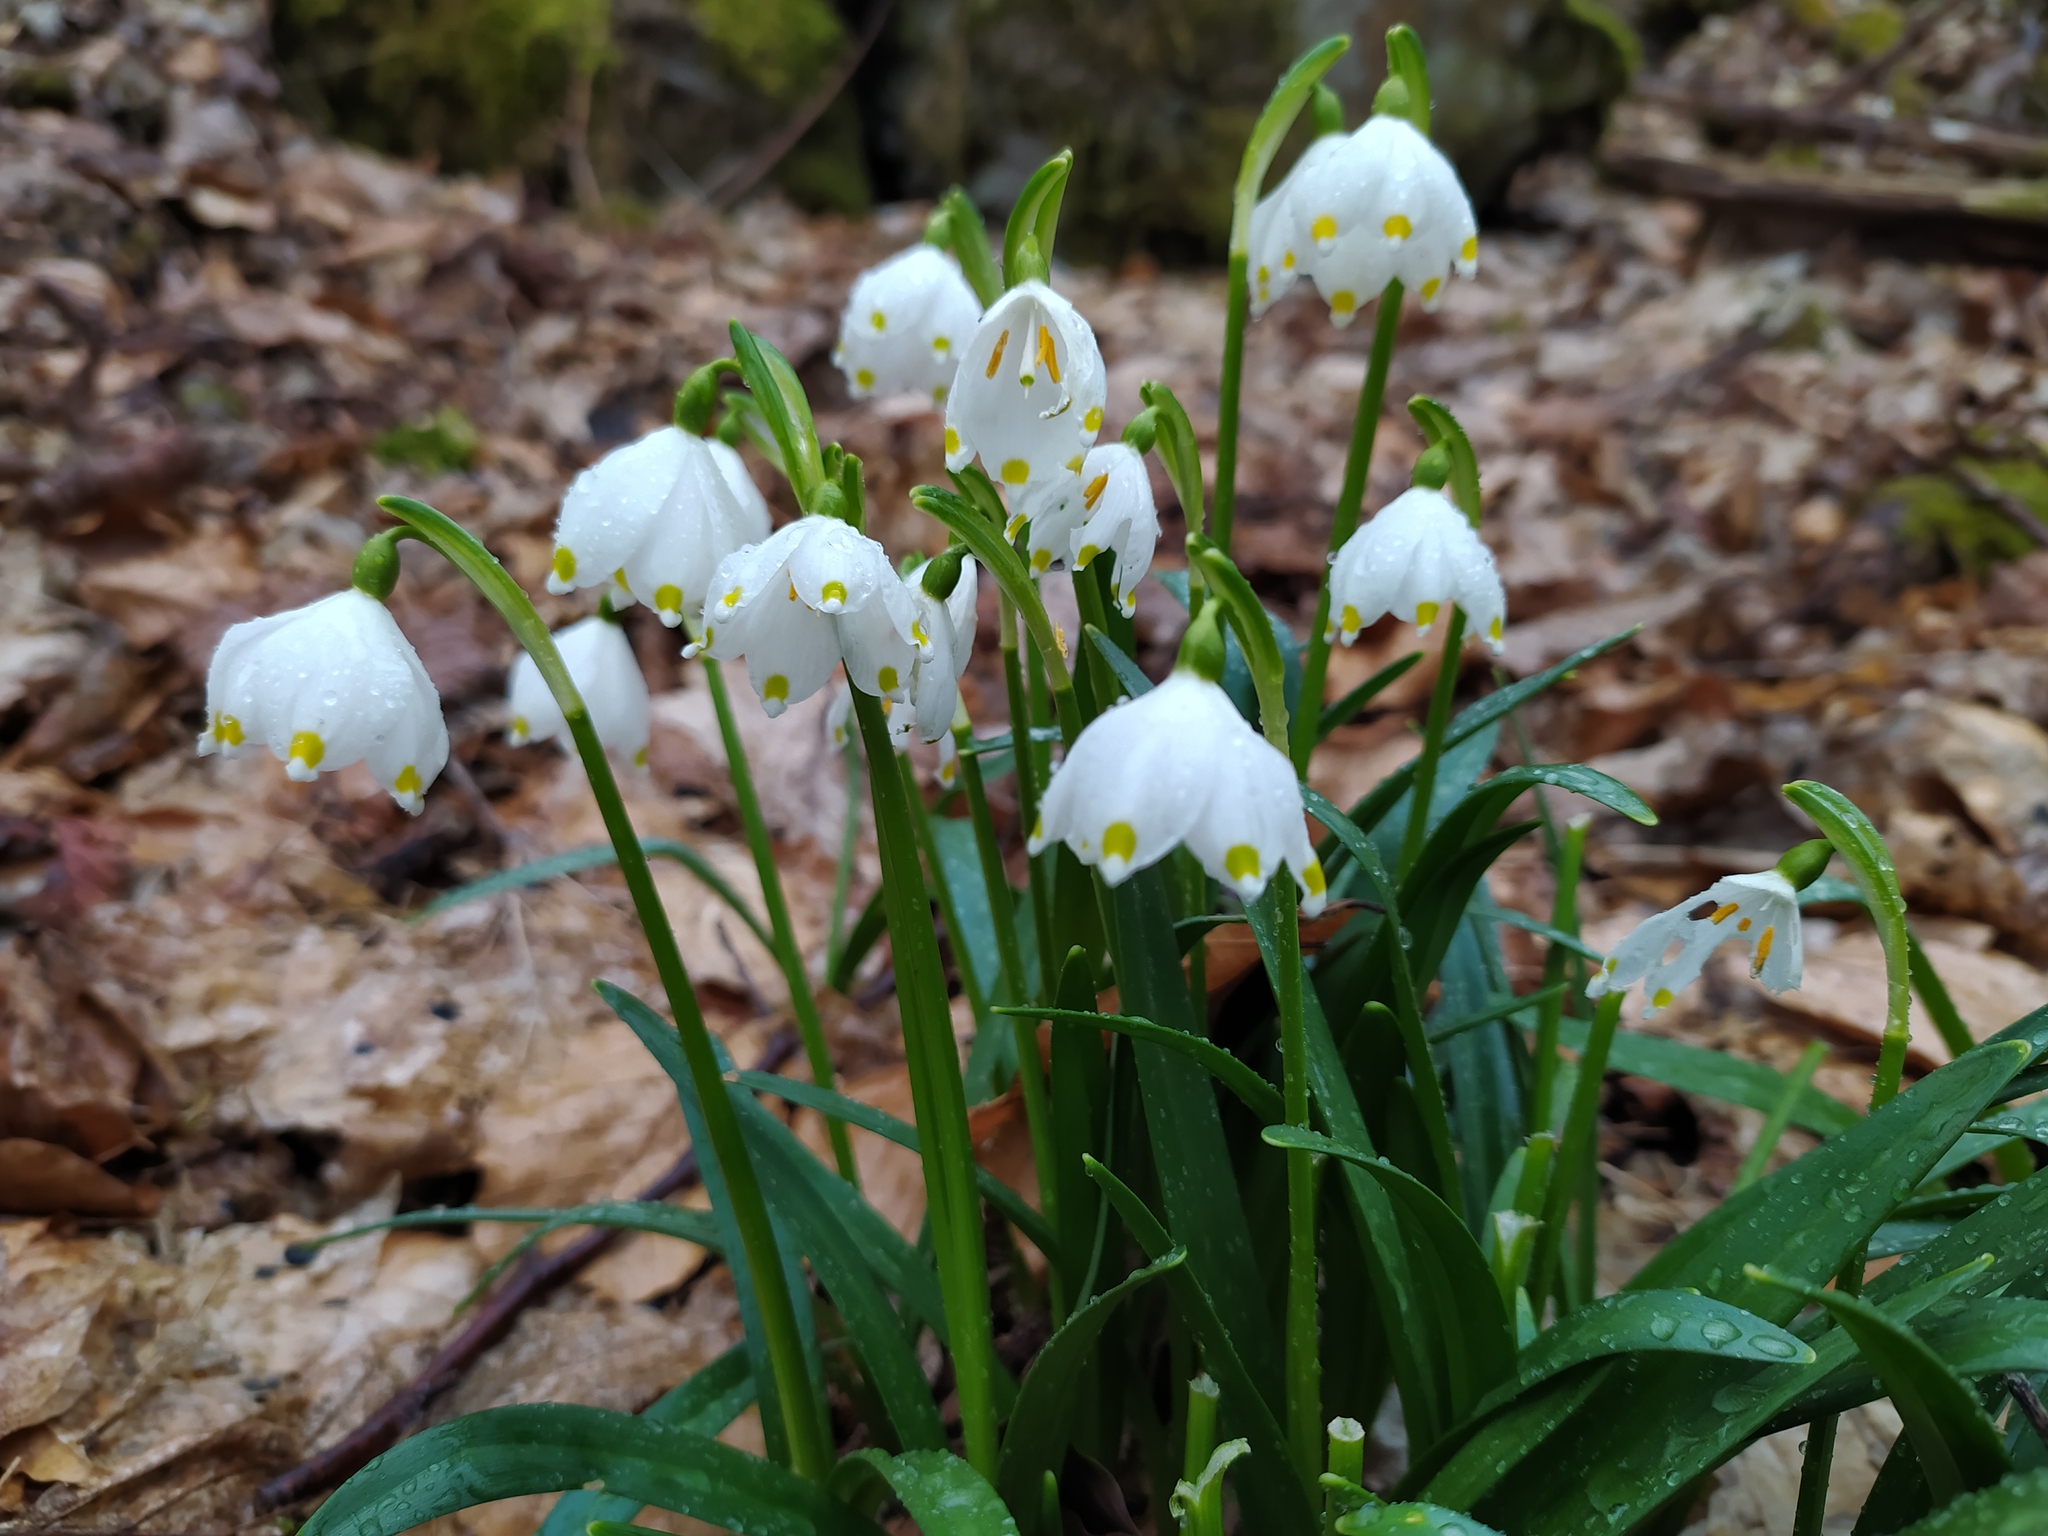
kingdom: Plantae
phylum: Tracheophyta
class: Liliopsida
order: Asparagales
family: Amaryllidaceae
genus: Leucojum
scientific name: Leucojum vernum
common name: Spring snowflake
